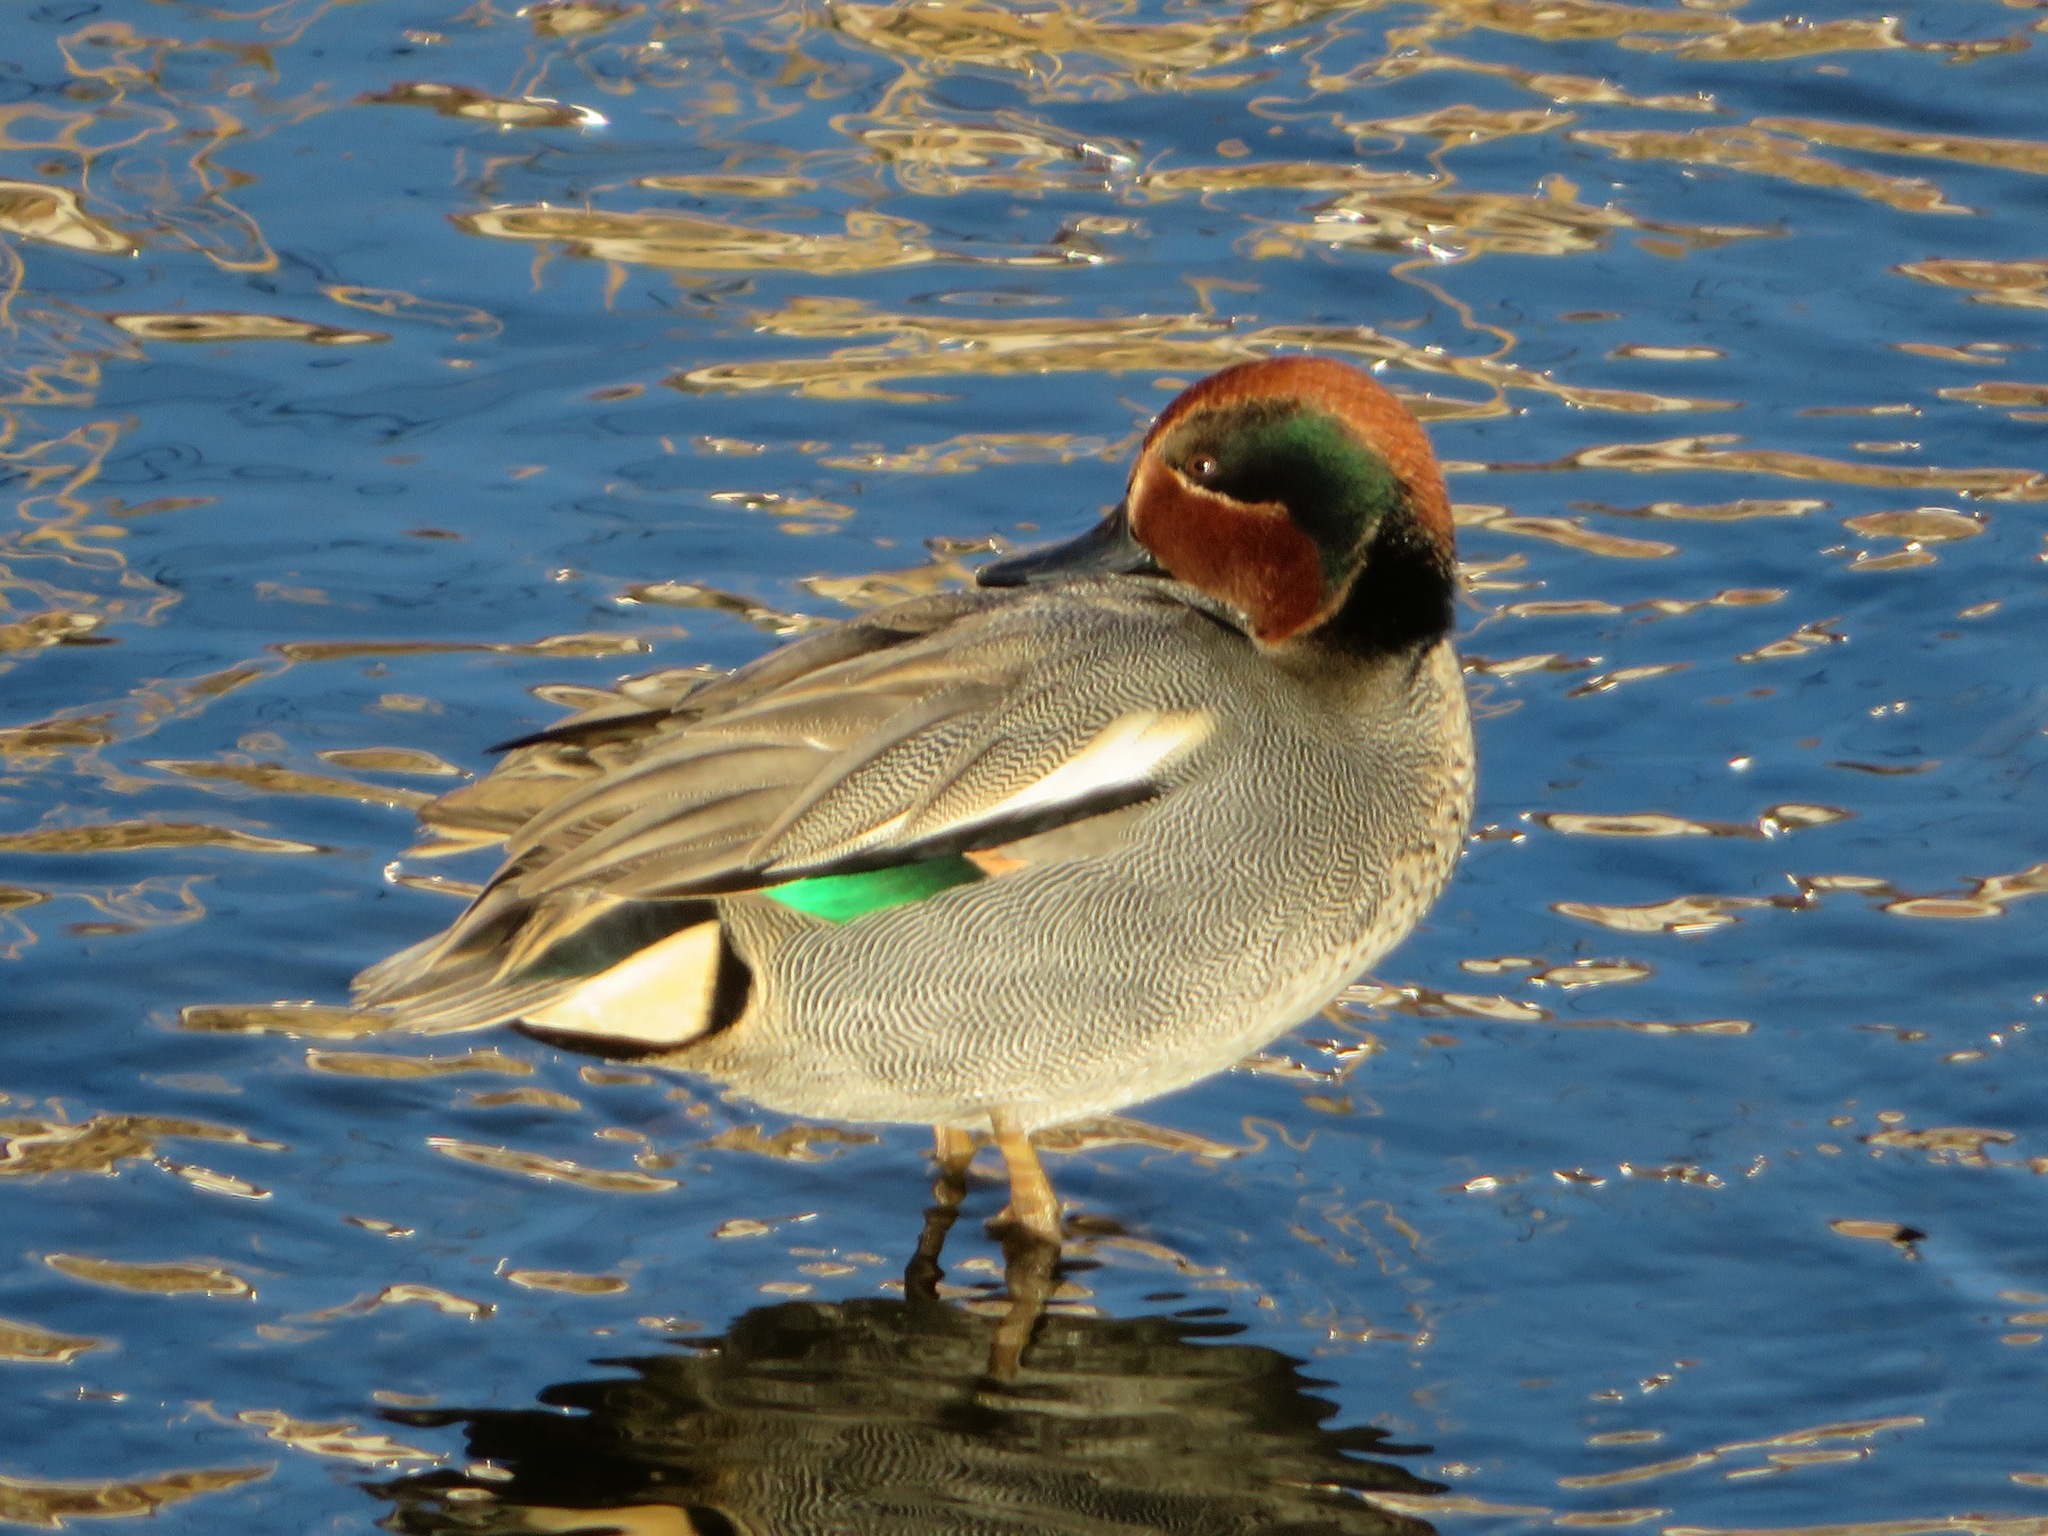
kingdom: Animalia
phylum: Chordata
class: Aves
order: Anseriformes
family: Anatidae
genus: Anas
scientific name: Anas crecca
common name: Eurasian teal
